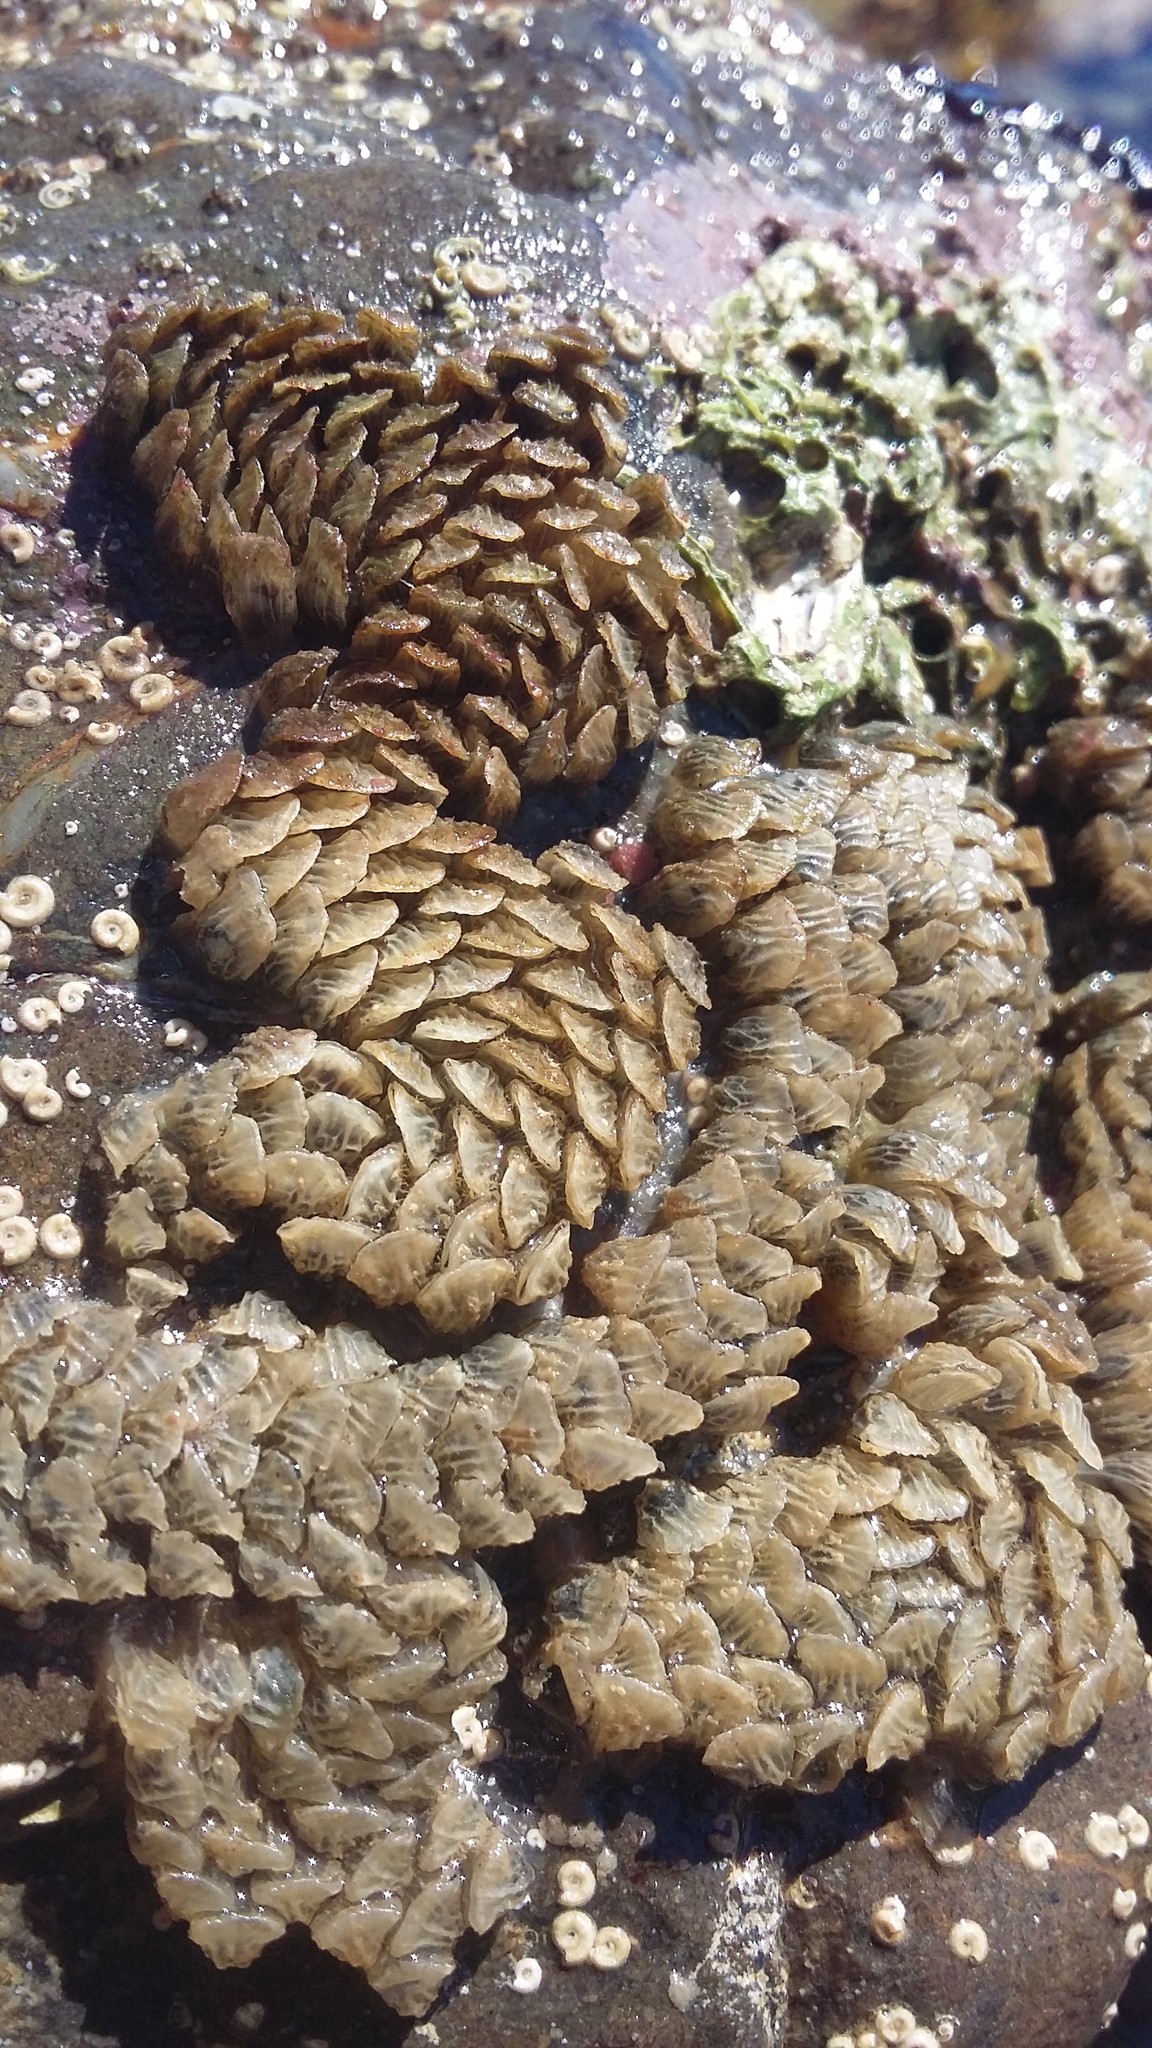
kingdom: Animalia
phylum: Mollusca
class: Gastropoda
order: Neogastropoda
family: Cominellidae
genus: Cominella
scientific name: Cominella virgata
